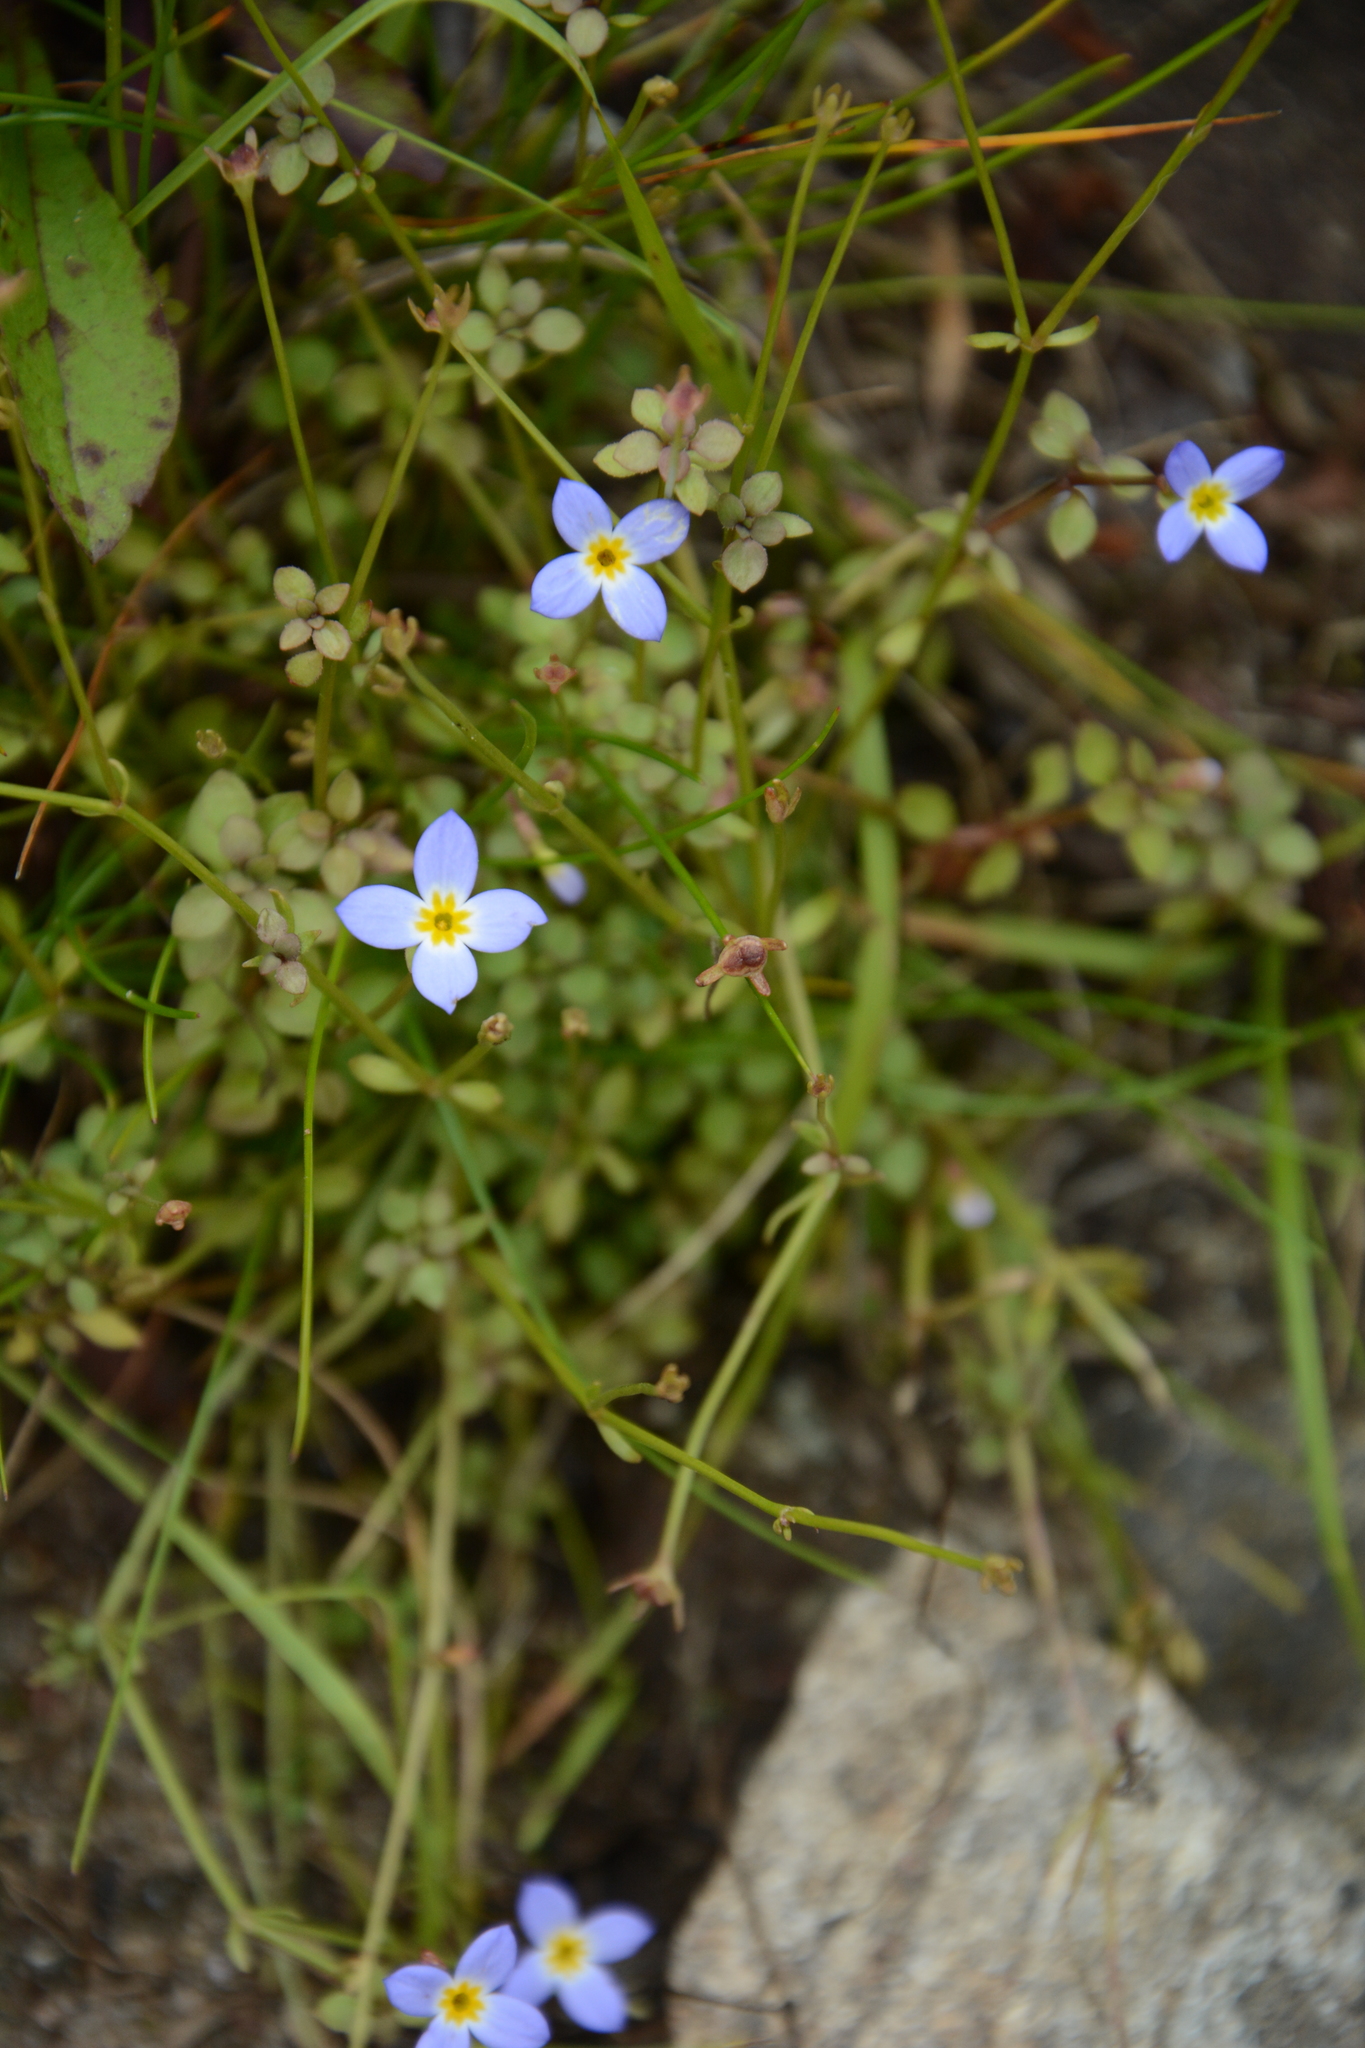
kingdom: Plantae
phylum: Tracheophyta
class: Magnoliopsida
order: Gentianales
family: Rubiaceae
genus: Houstonia
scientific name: Houstonia caerulea
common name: Bluets
